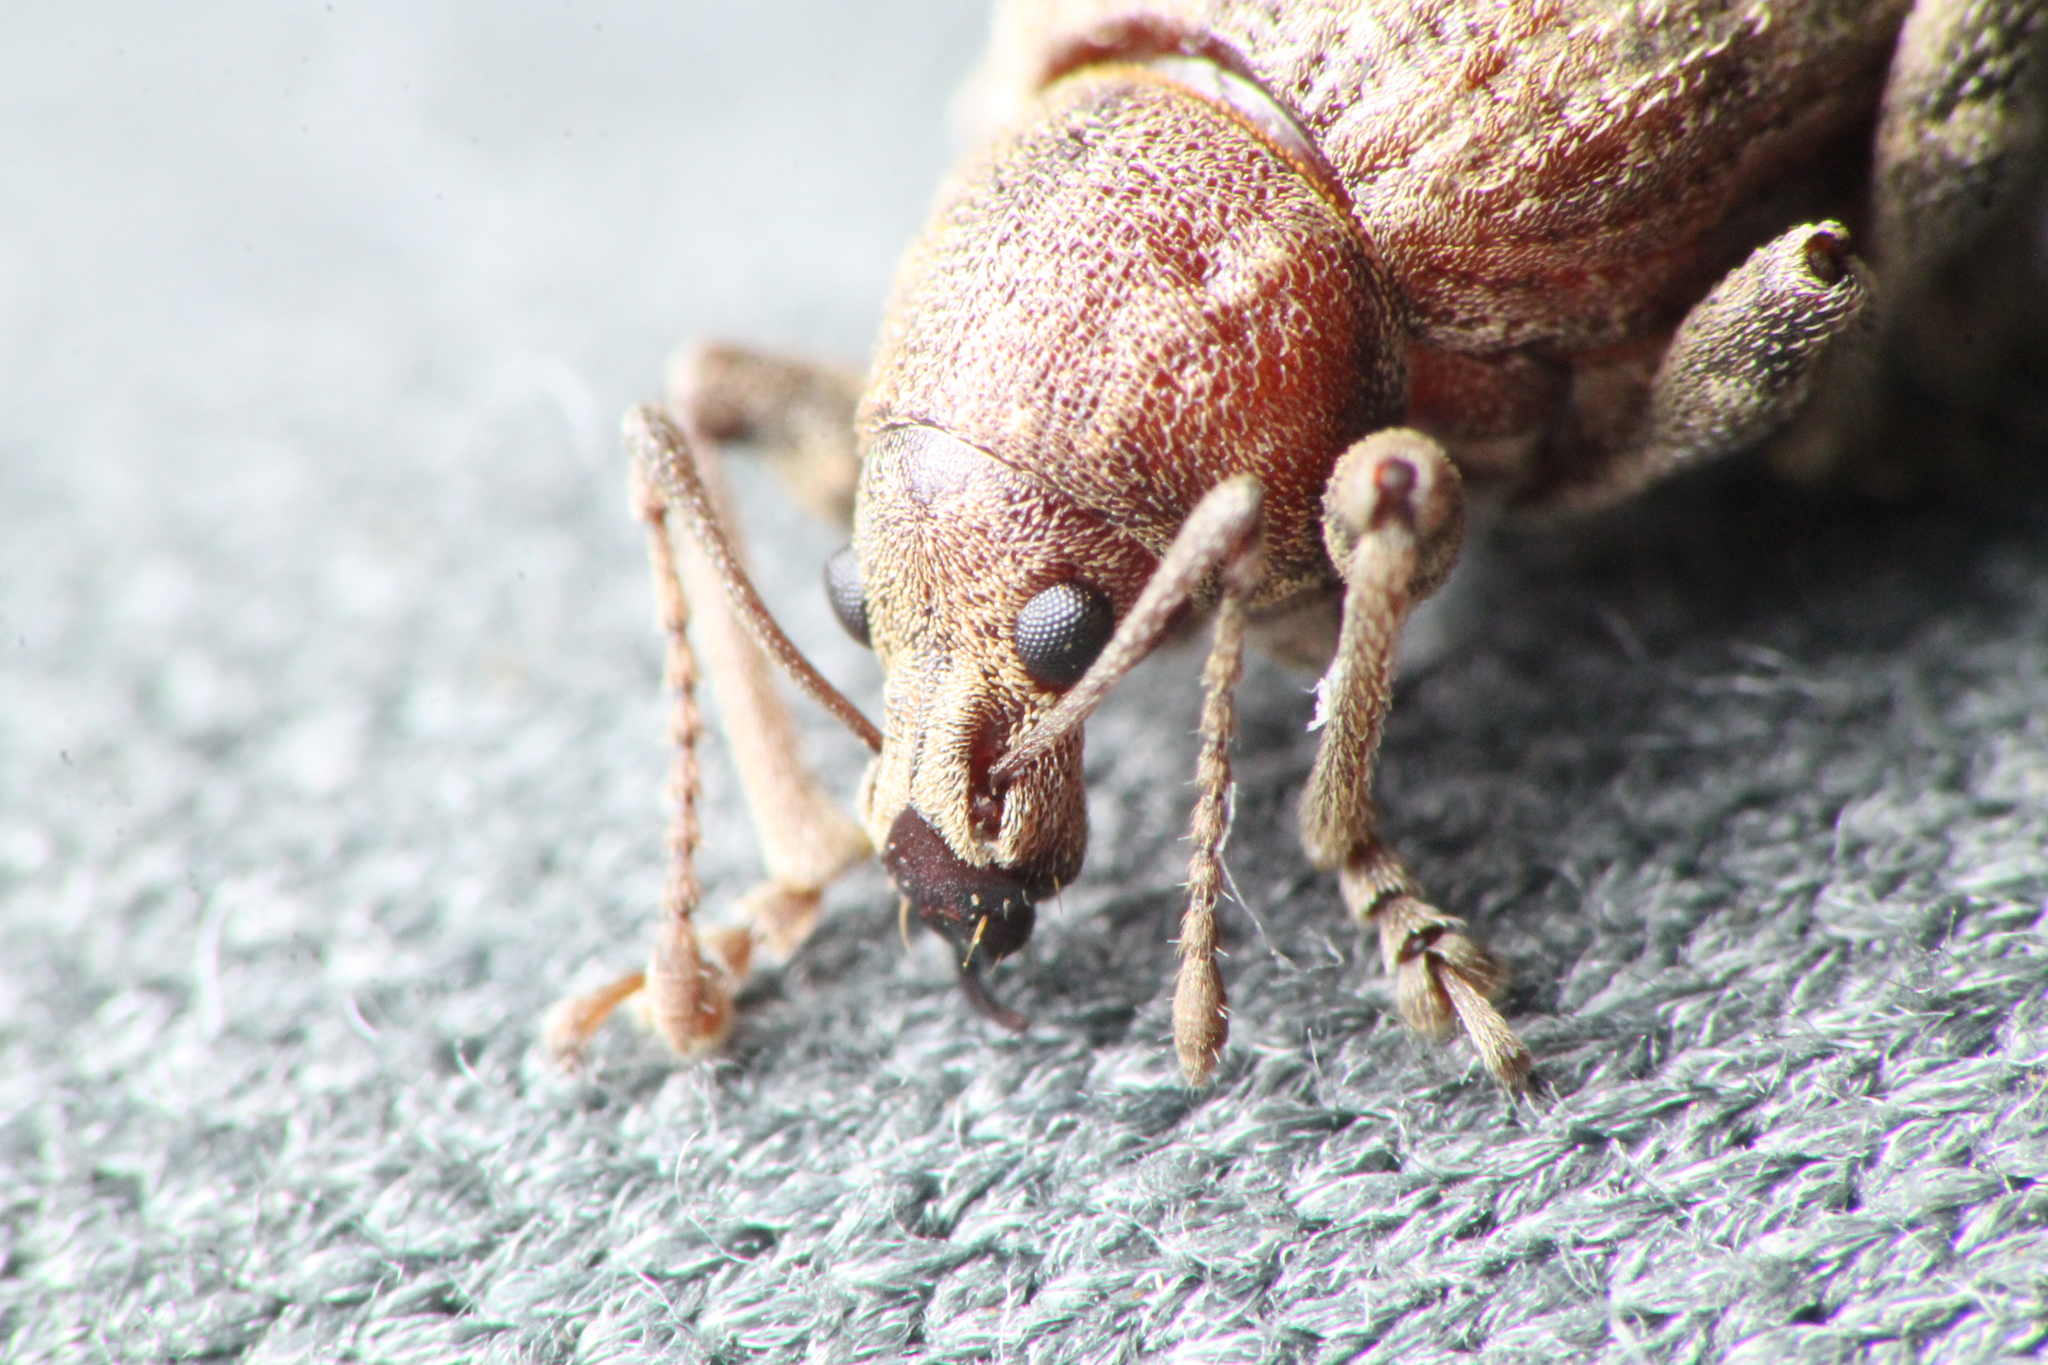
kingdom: Animalia
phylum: Arthropoda
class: Insecta
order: Coleoptera
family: Curculionidae
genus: Phlyctinus
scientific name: Phlyctinus callosus
